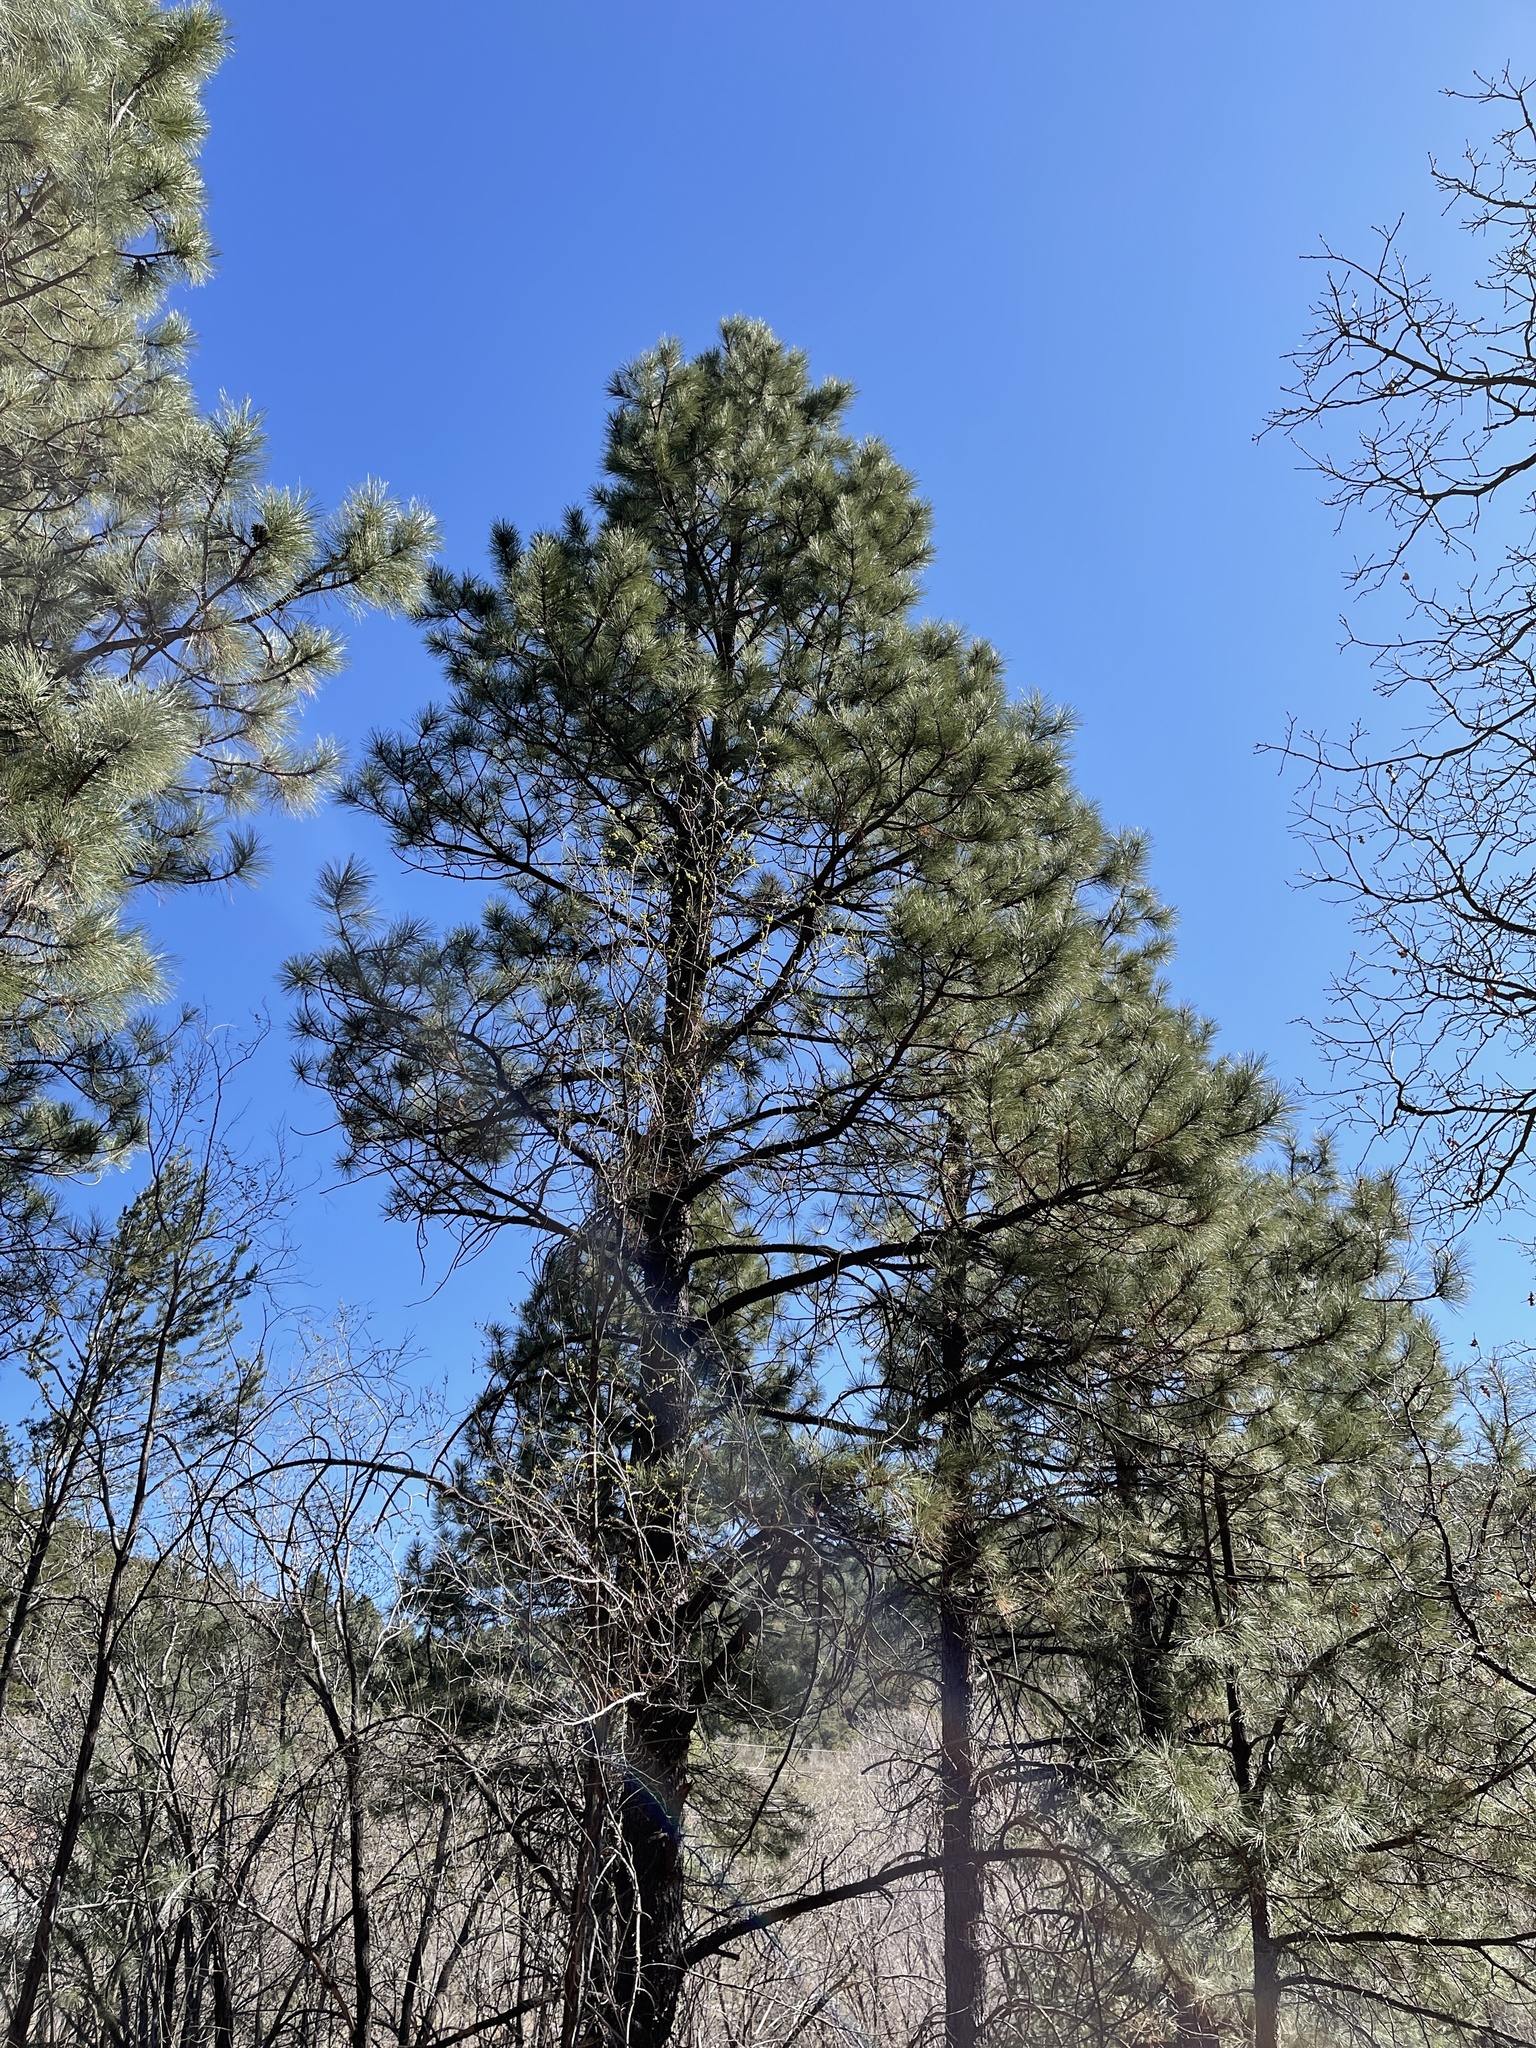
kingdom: Plantae
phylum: Tracheophyta
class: Pinopsida
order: Pinales
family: Pinaceae
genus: Pinus
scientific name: Pinus ponderosa
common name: Western yellow-pine
